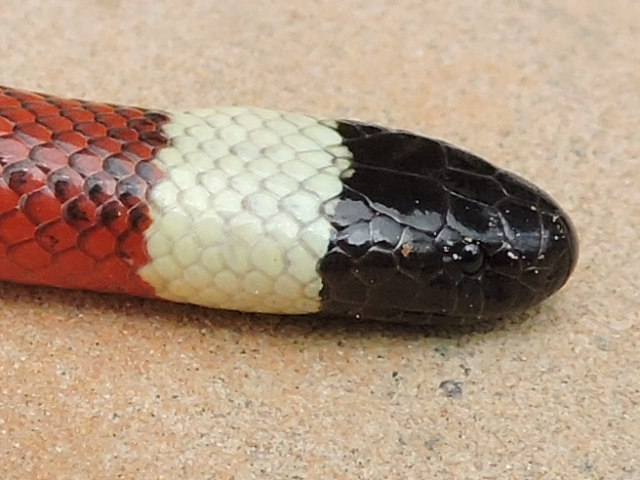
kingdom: Animalia
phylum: Chordata
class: Squamata
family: Elapidae
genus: Micruroides
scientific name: Micruroides euryxanthus
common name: Western coral snake
